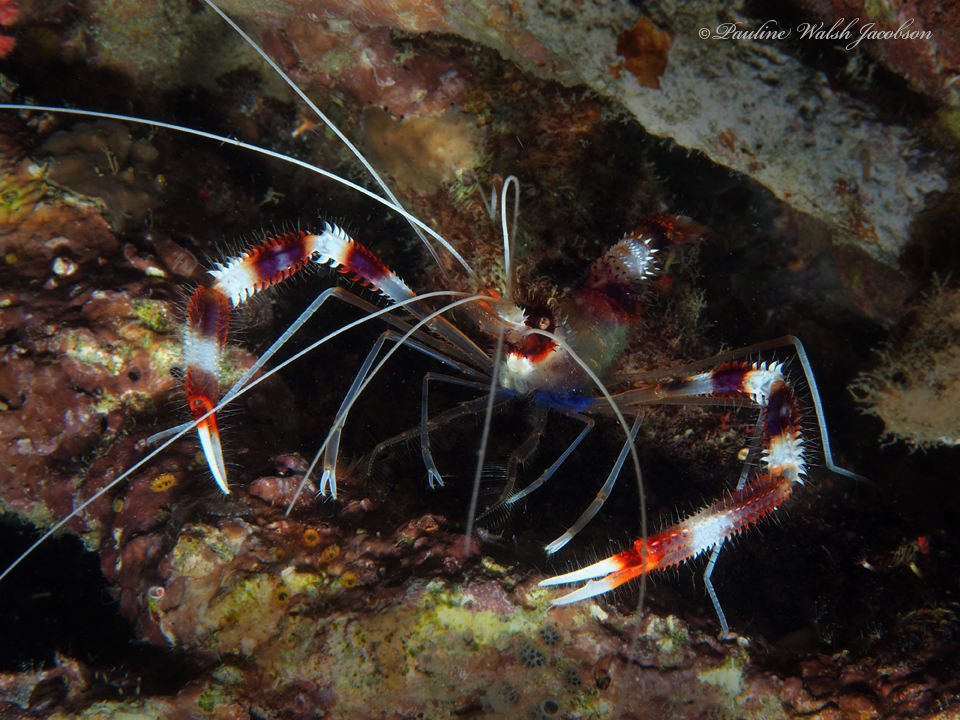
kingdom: Animalia
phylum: Arthropoda
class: Malacostraca
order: Decapoda
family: Stenopodidae
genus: Stenopus
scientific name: Stenopus hispidus
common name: Banded coral shrimp
